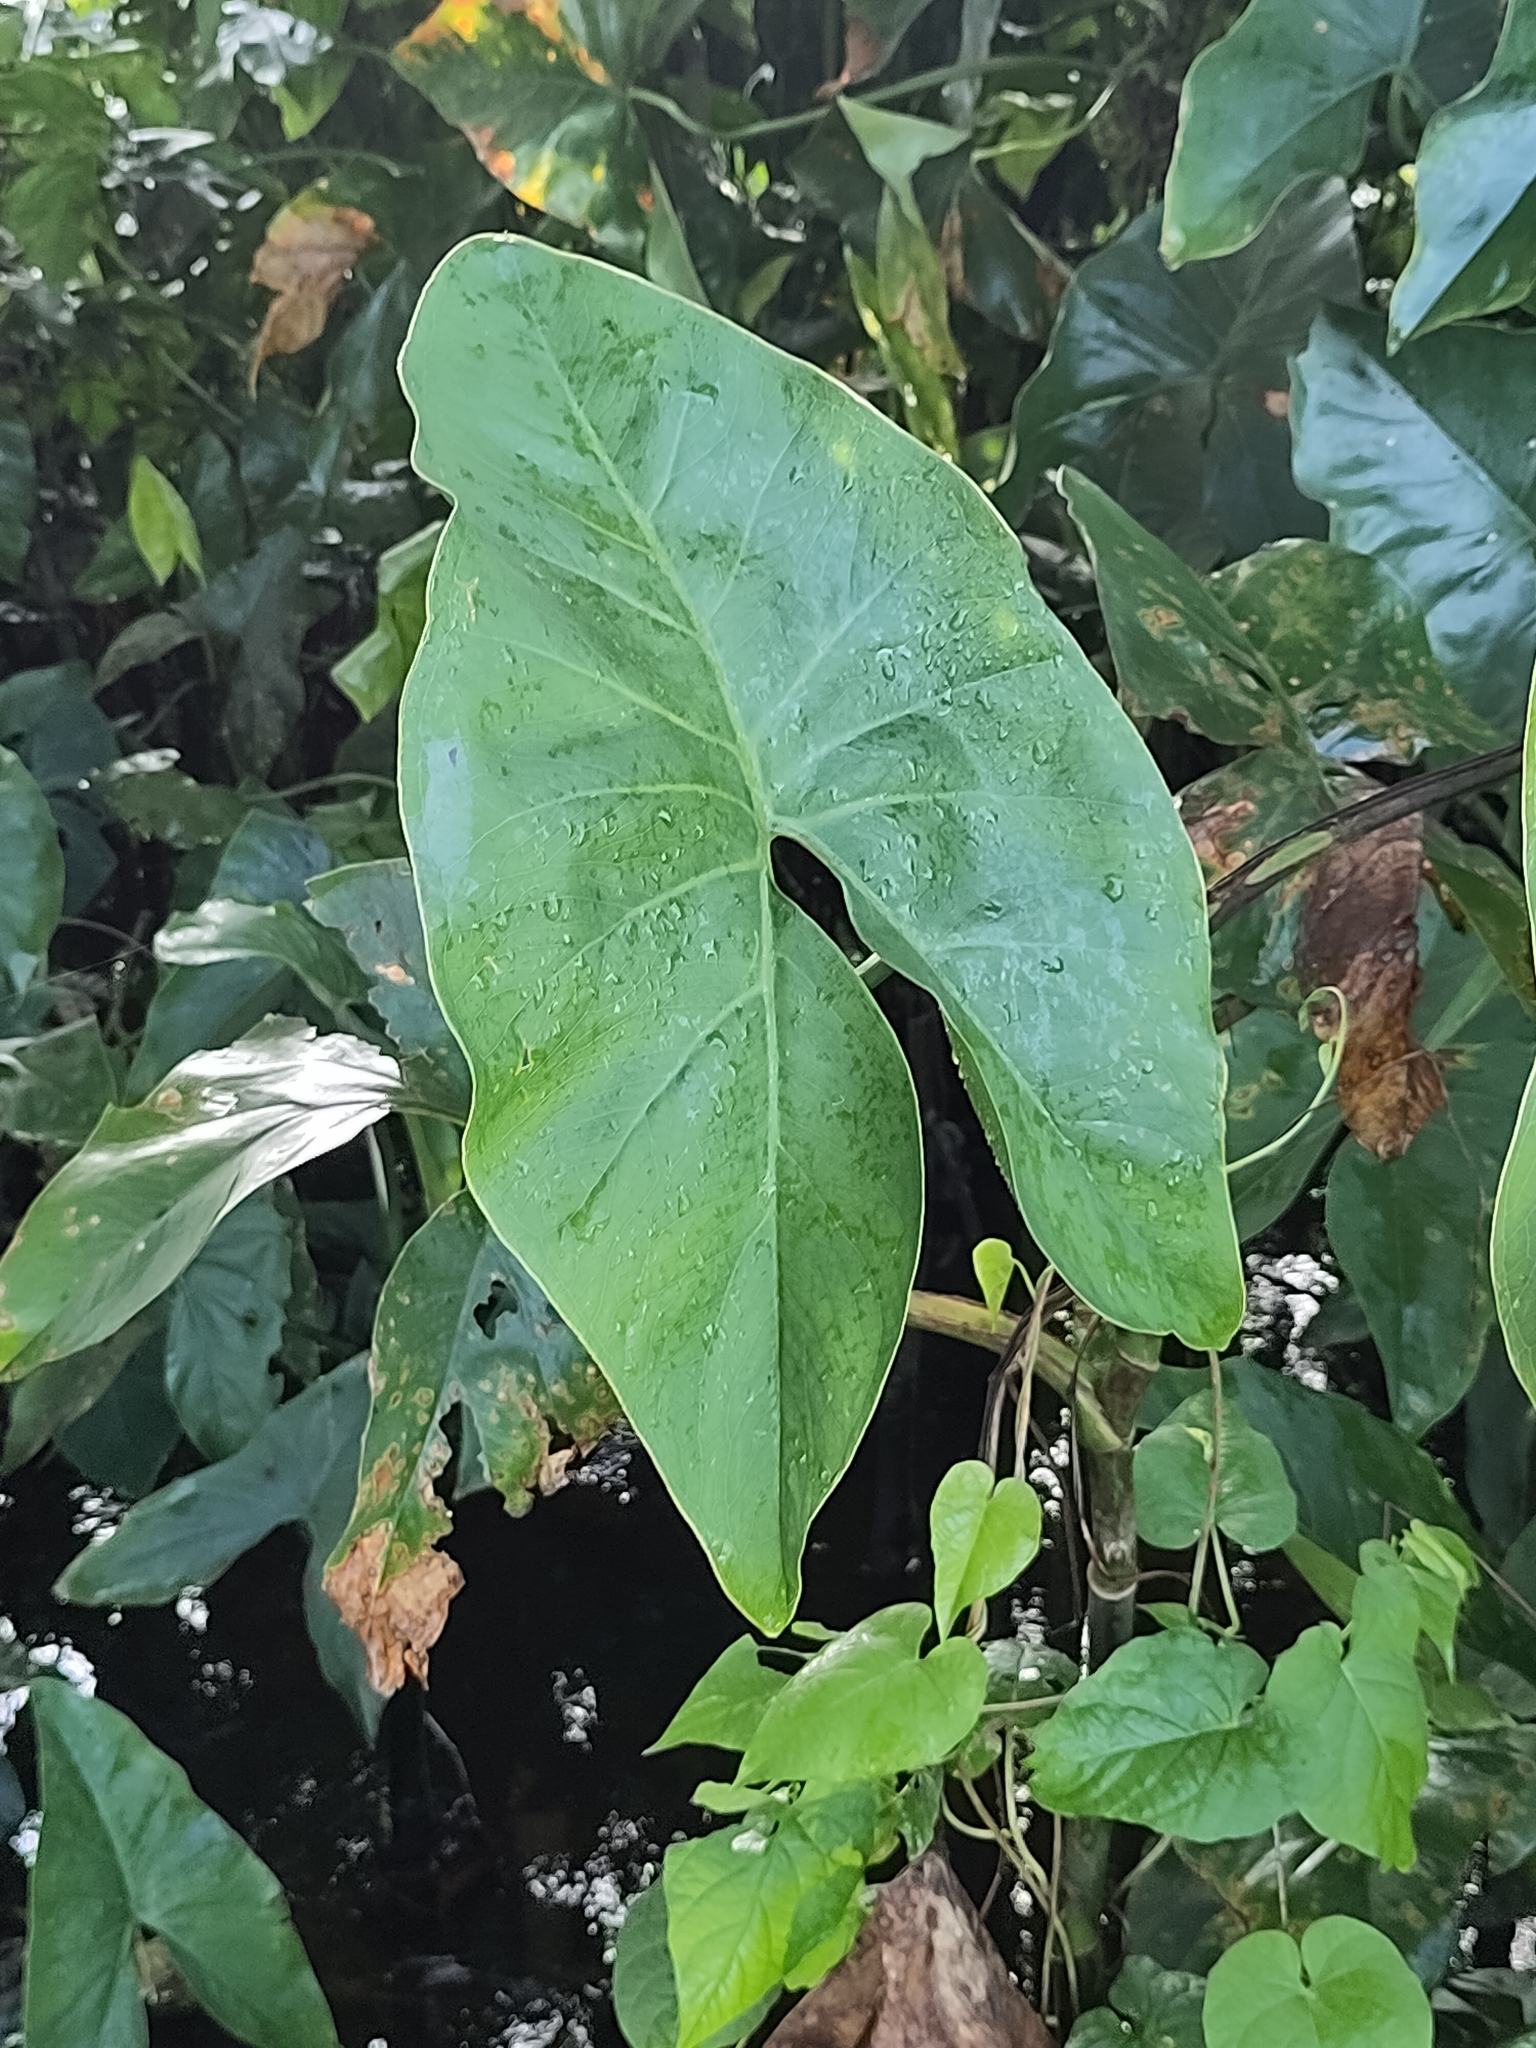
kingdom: Plantae
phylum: Tracheophyta
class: Liliopsida
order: Alismatales
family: Araceae
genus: Montrichardia
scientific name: Montrichardia arborescens
